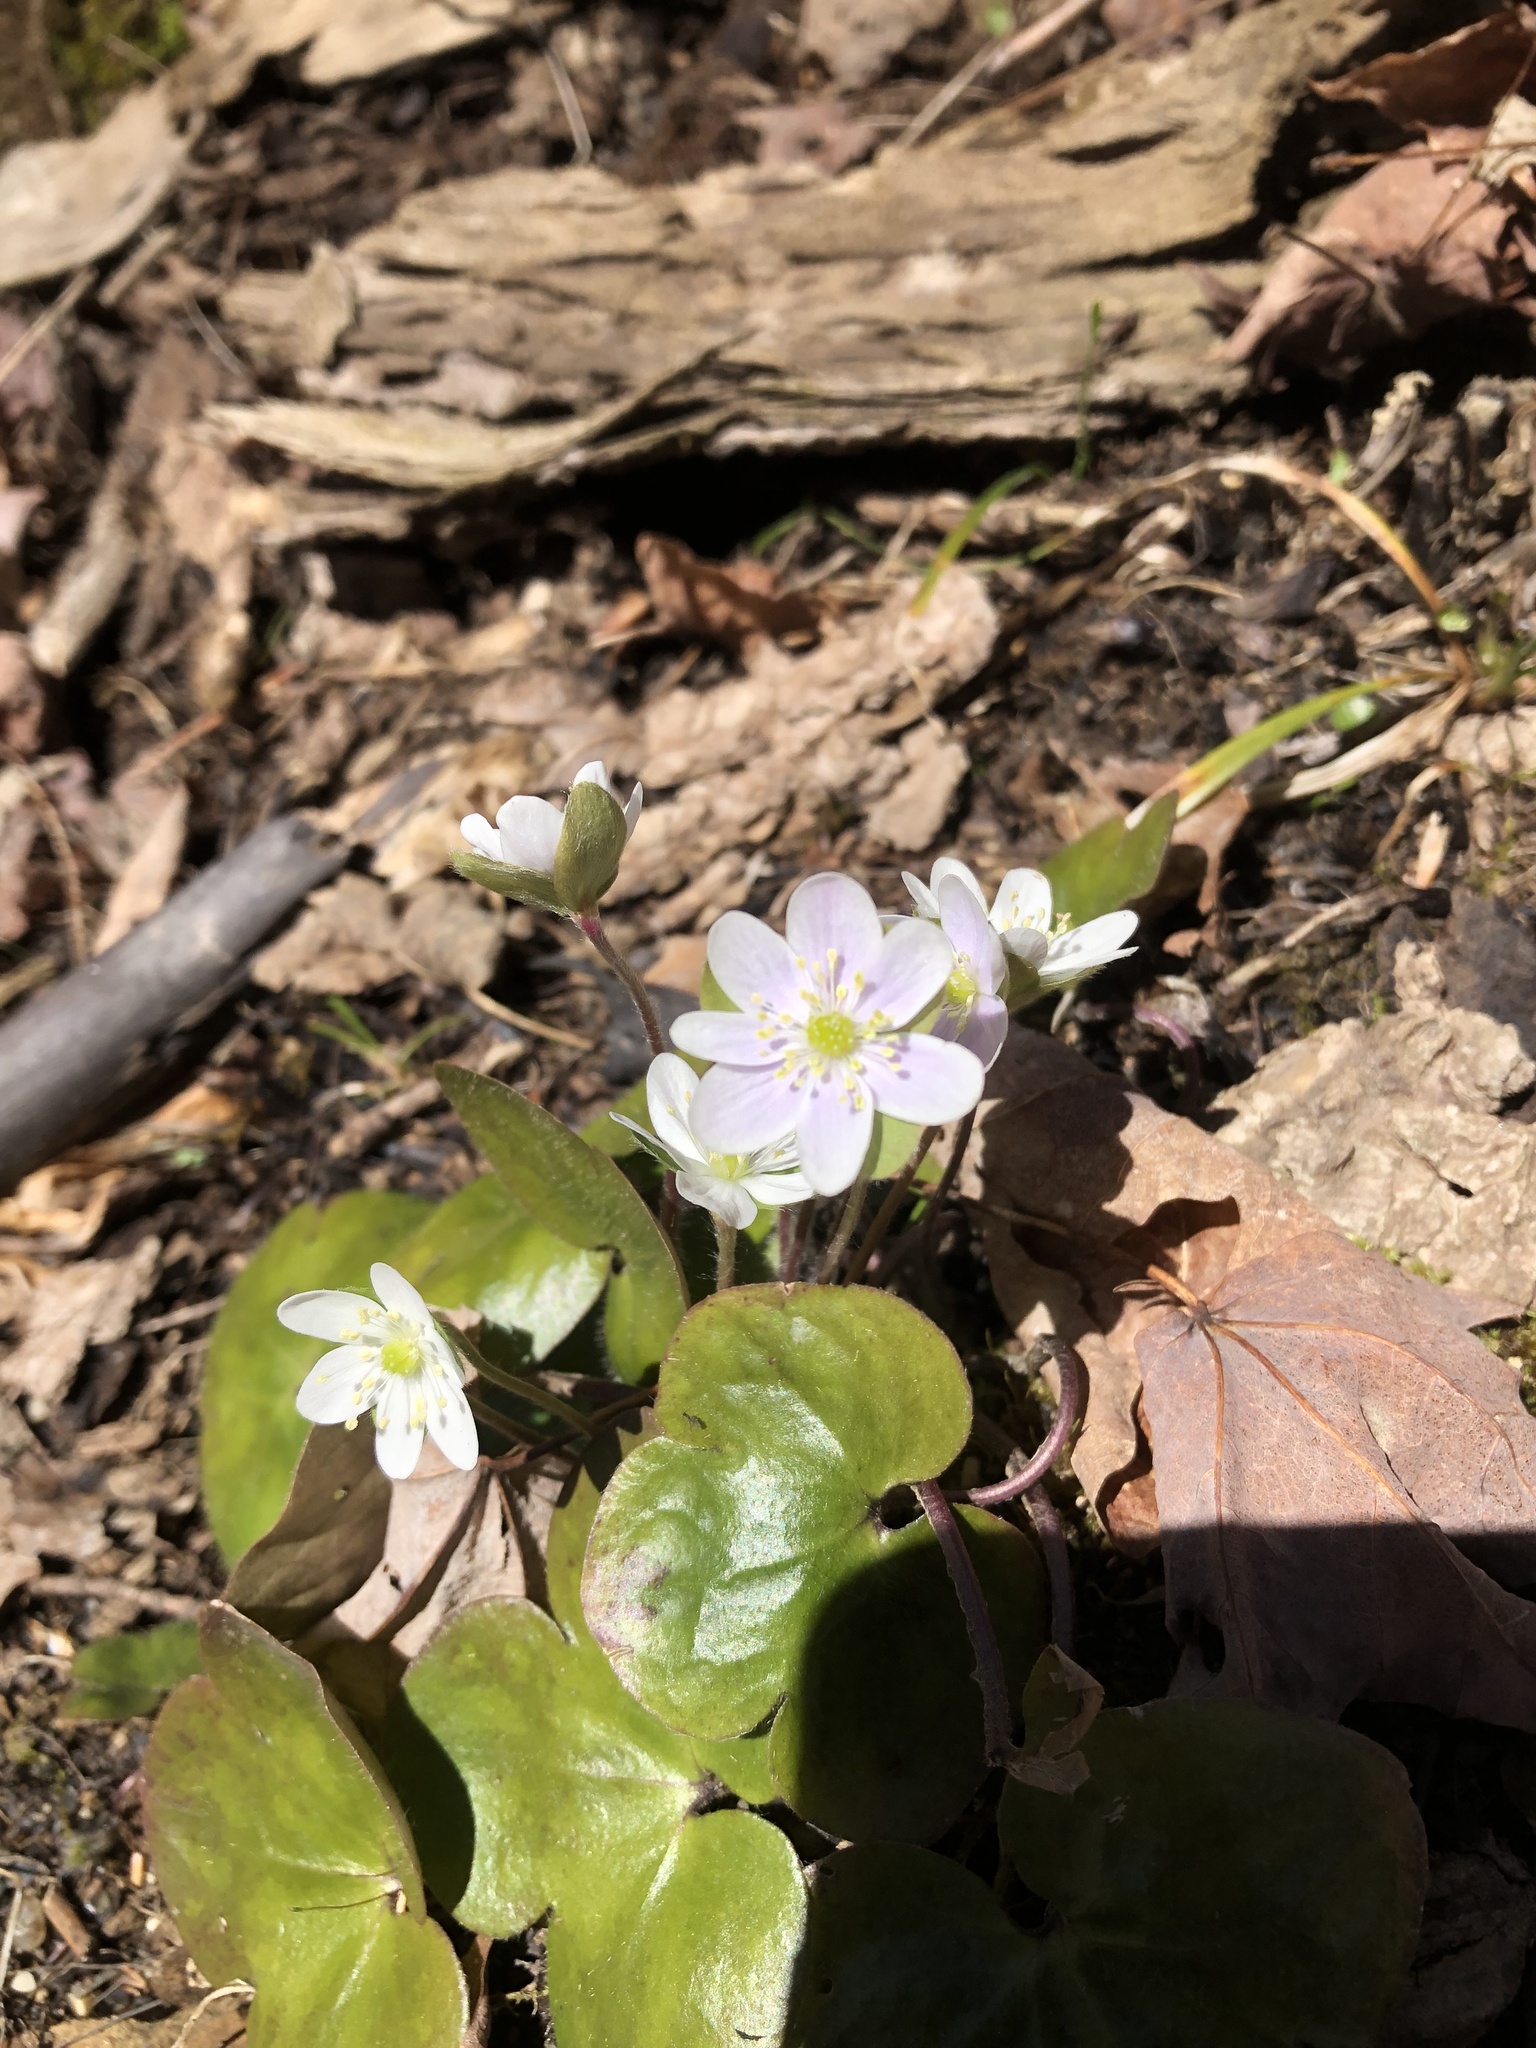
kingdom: Plantae
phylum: Tracheophyta
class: Magnoliopsida
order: Ranunculales
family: Ranunculaceae
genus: Hepatica
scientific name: Hepatica americana
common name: American hepatica
